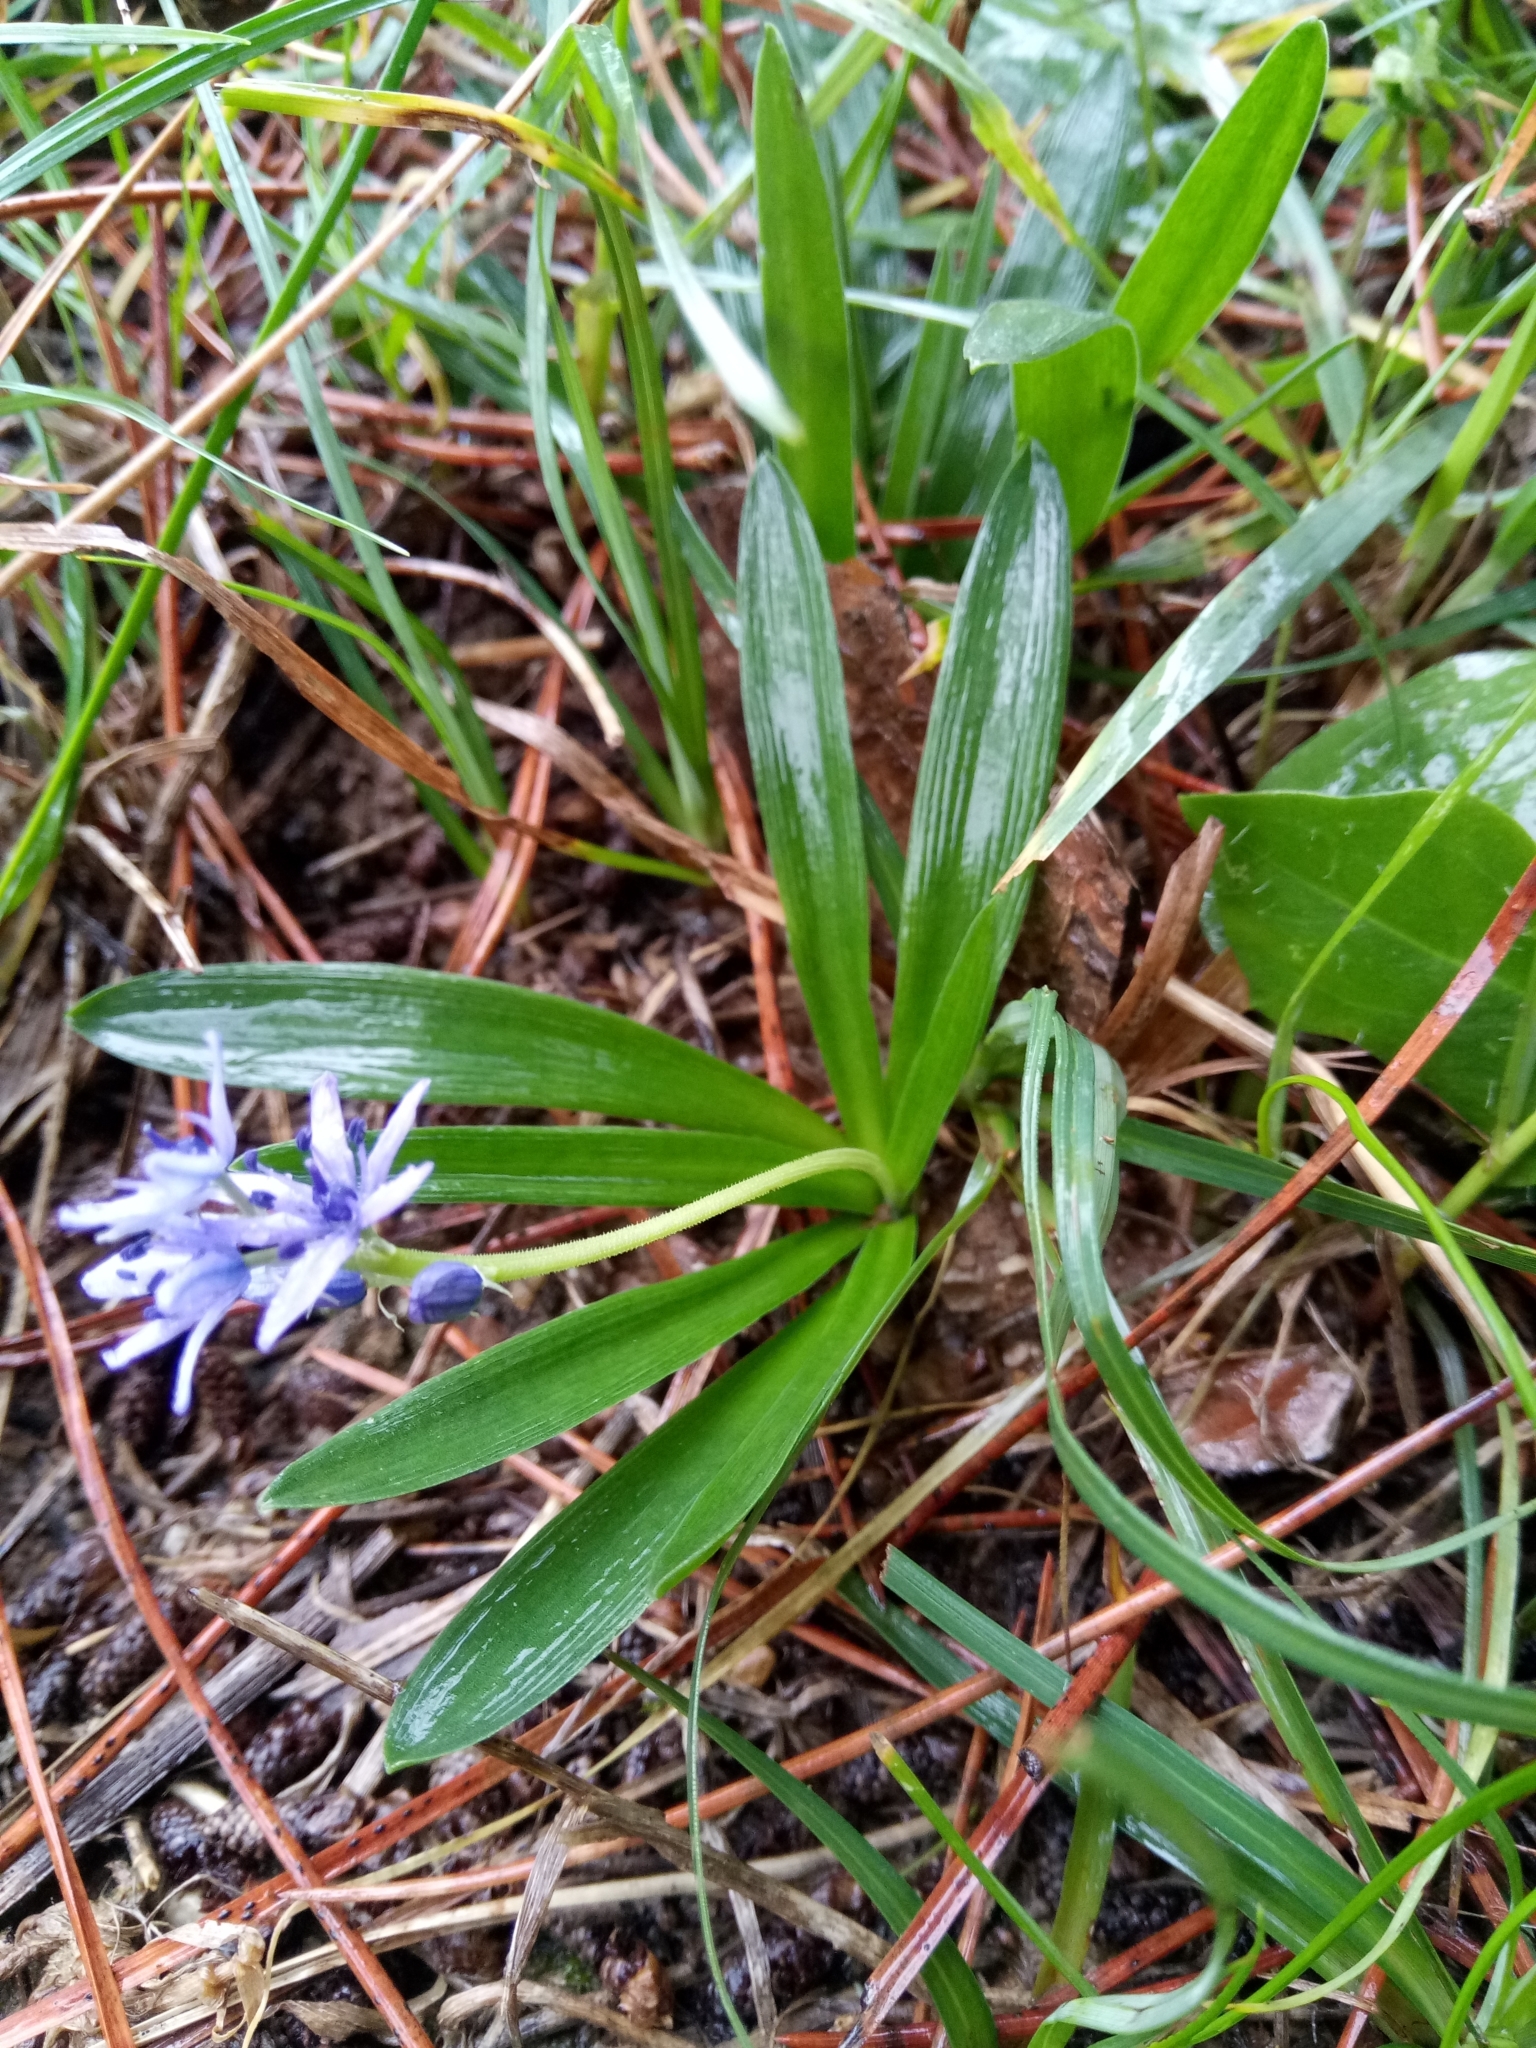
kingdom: Plantae
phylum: Tracheophyta
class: Liliopsida
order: Asparagales
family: Asparagaceae
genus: Hyacinthoides
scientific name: Hyacinthoides lingulata
